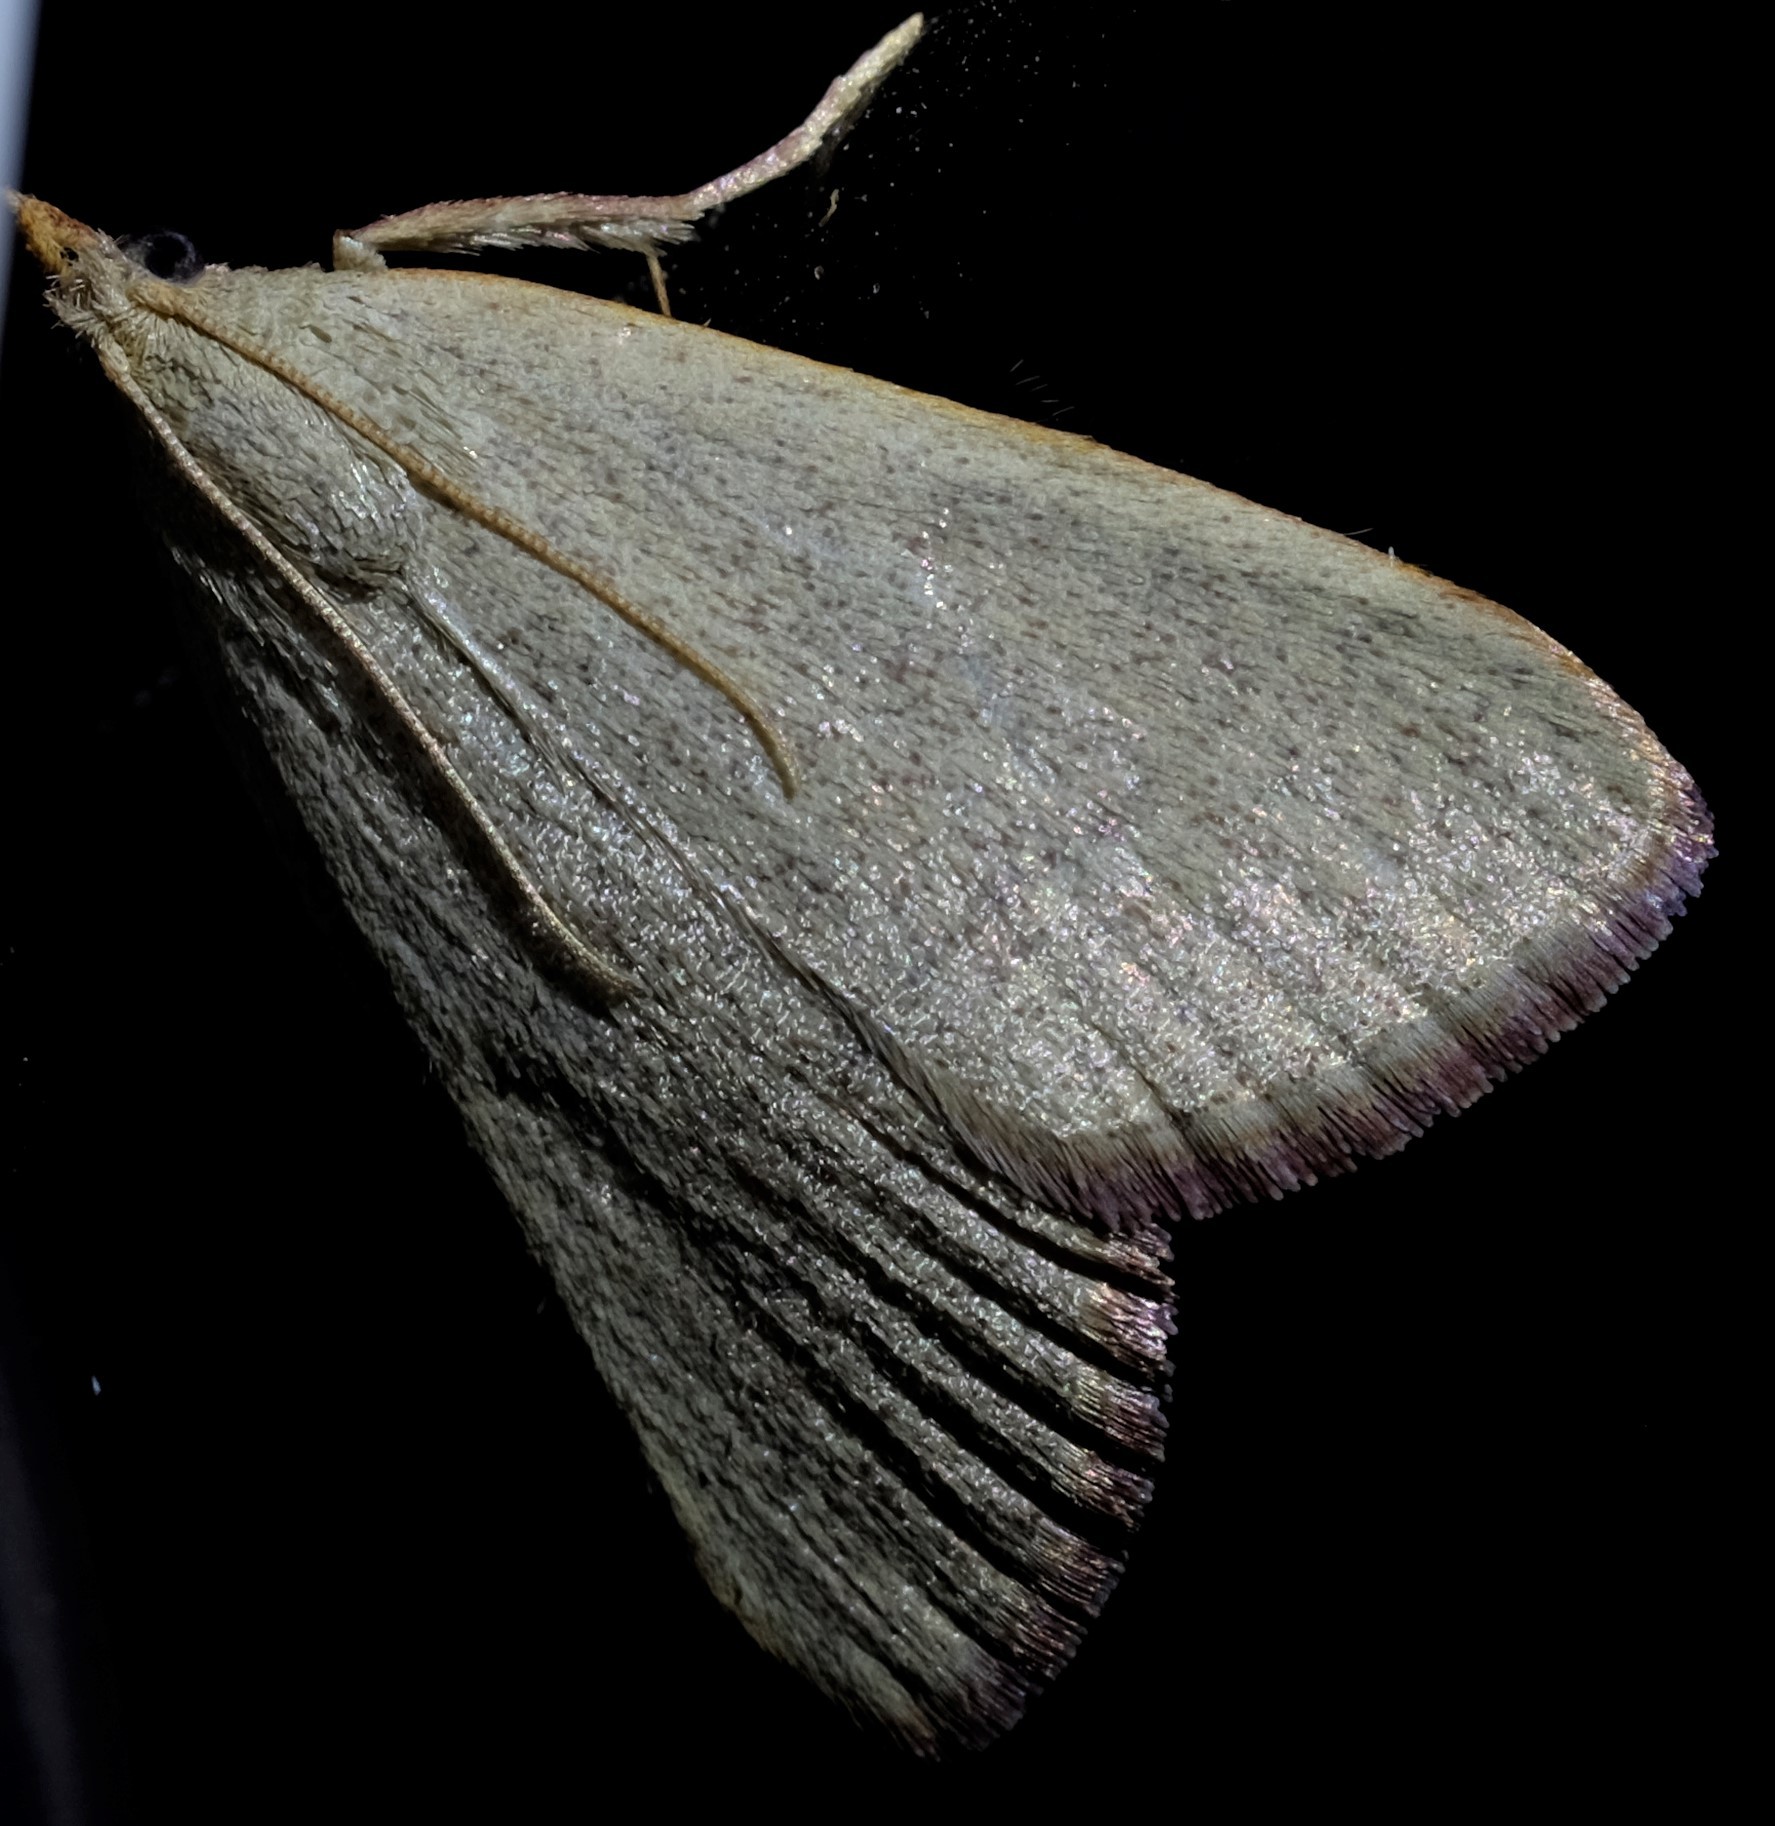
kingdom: Animalia
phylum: Arthropoda
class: Insecta
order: Lepidoptera
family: Pyralidae
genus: Hypsopygia
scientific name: Hypsopygia
